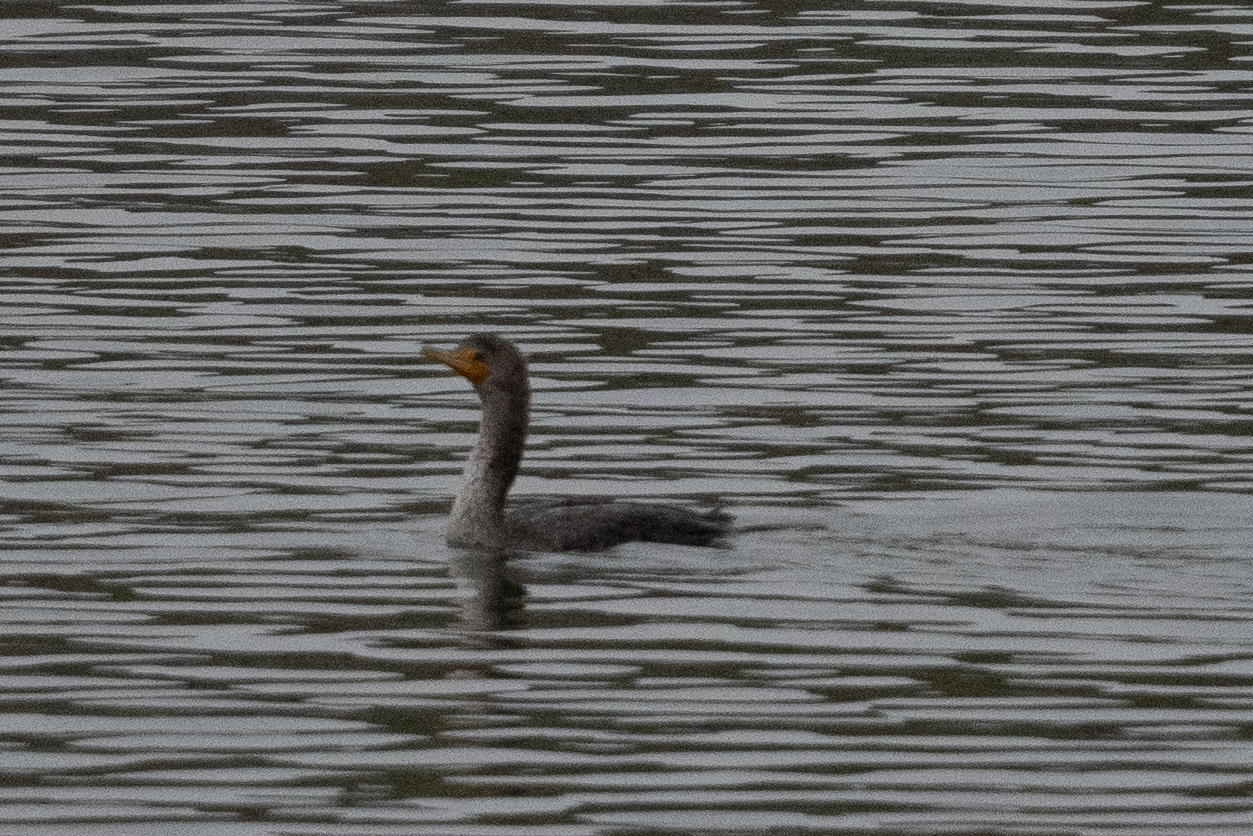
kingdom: Animalia
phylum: Chordata
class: Aves
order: Suliformes
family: Phalacrocoracidae
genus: Phalacrocorax
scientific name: Phalacrocorax auritus
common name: Double-crested cormorant
